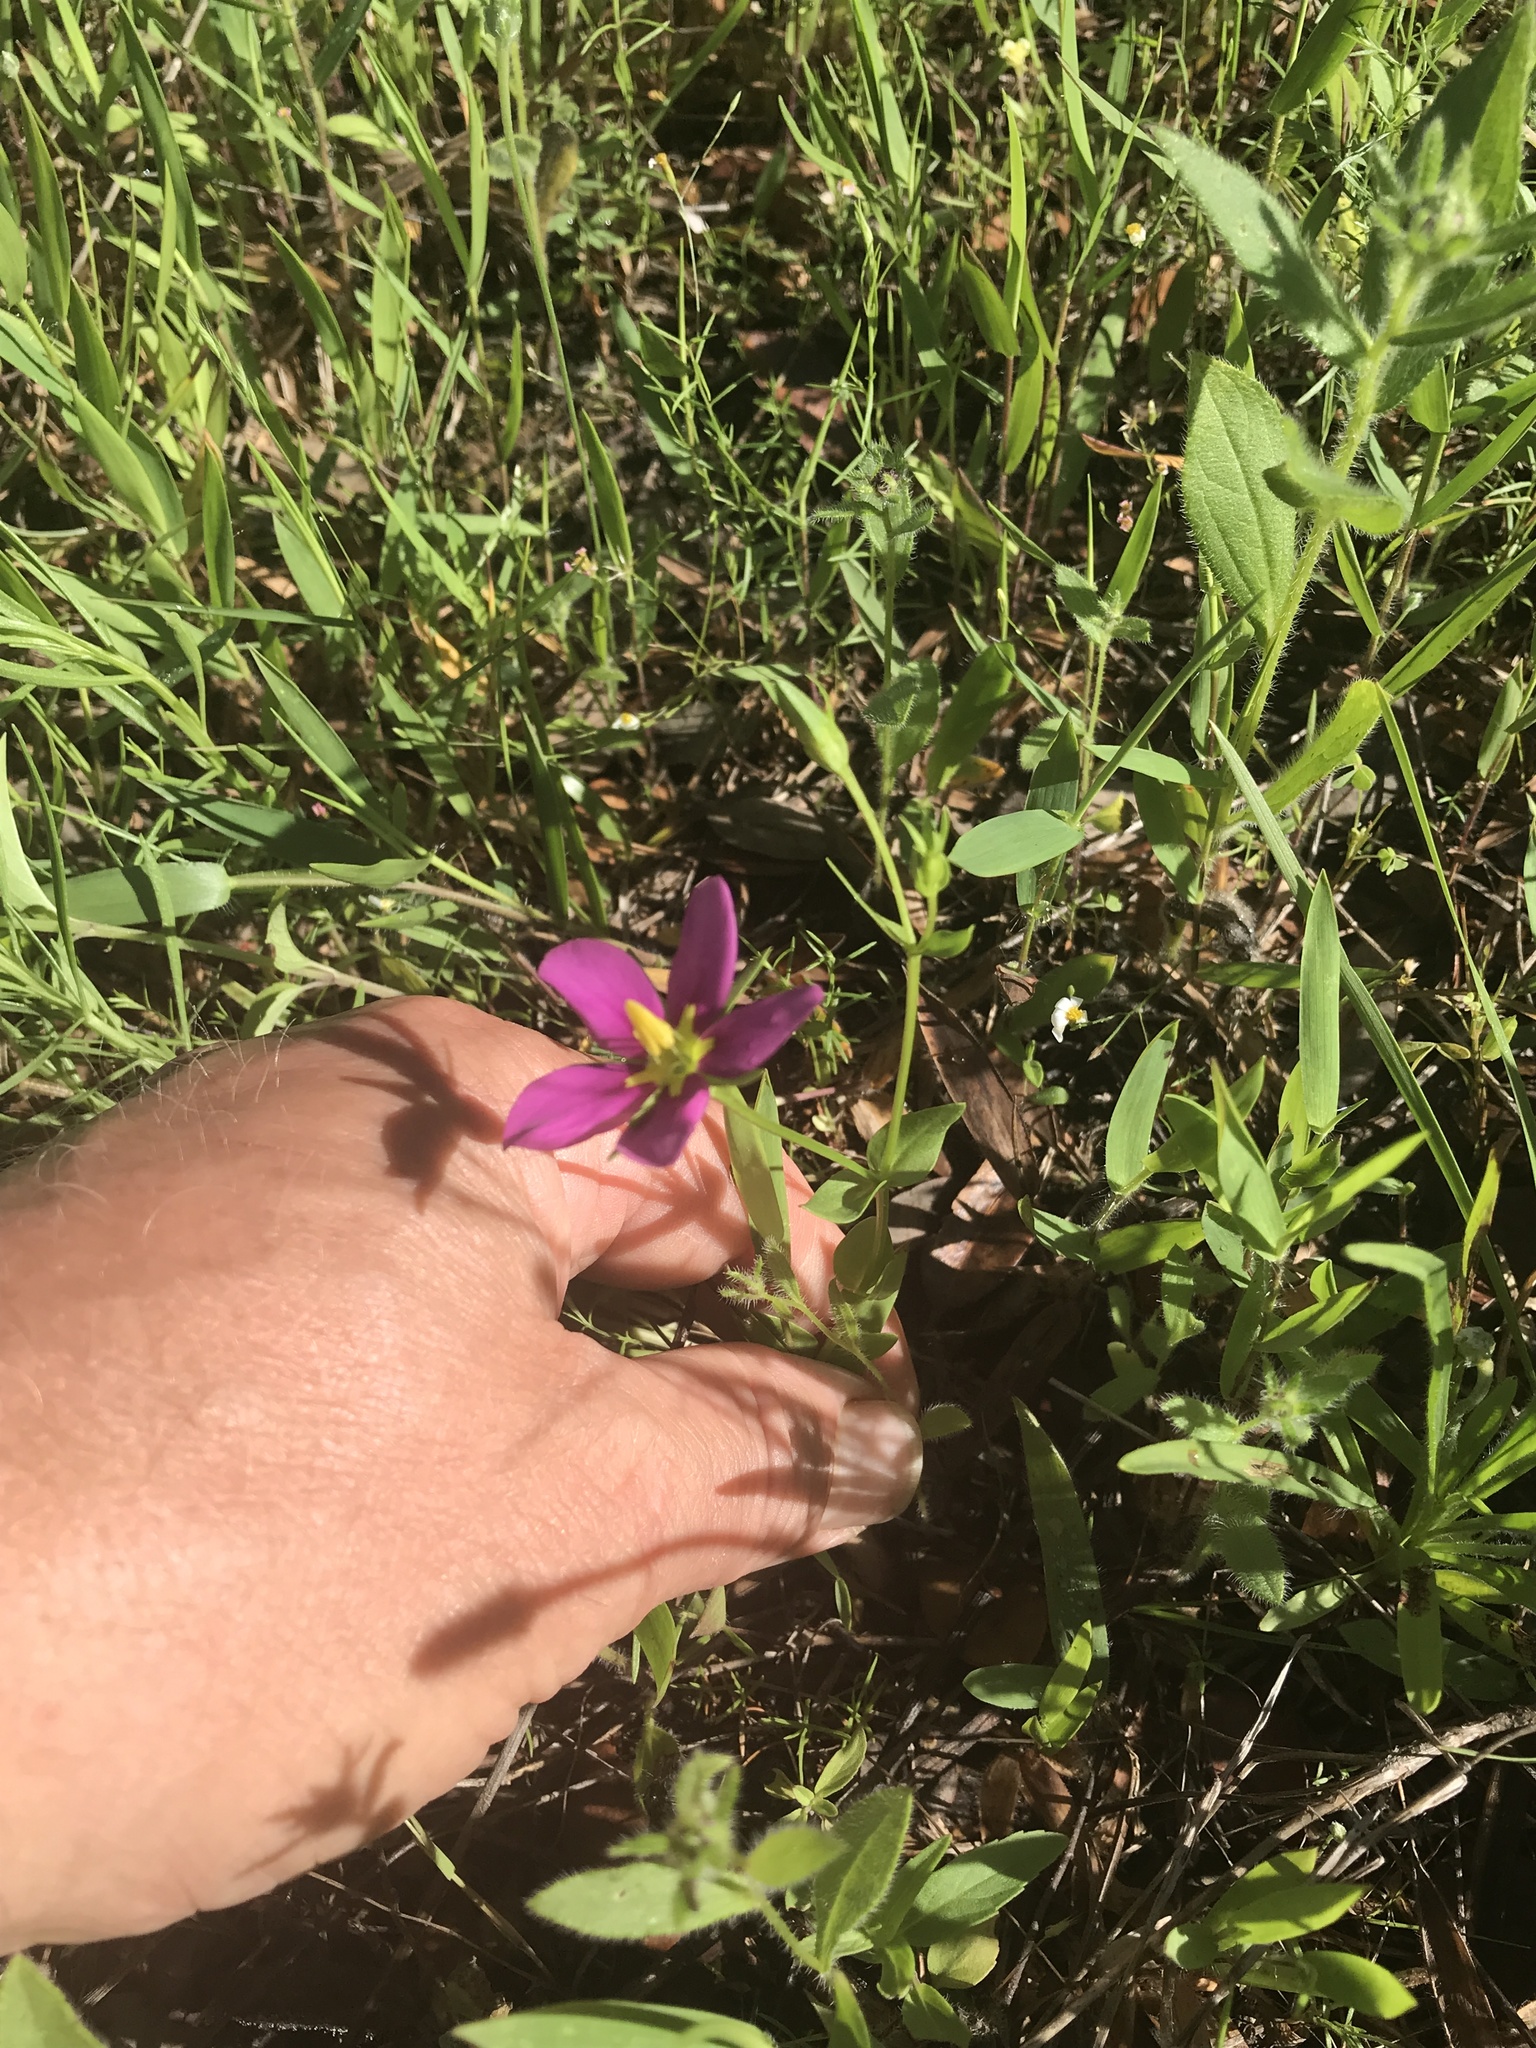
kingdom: Plantae
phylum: Tracheophyta
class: Magnoliopsida
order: Gentianales
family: Gentianaceae
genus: Sabatia
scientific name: Sabatia campestris
